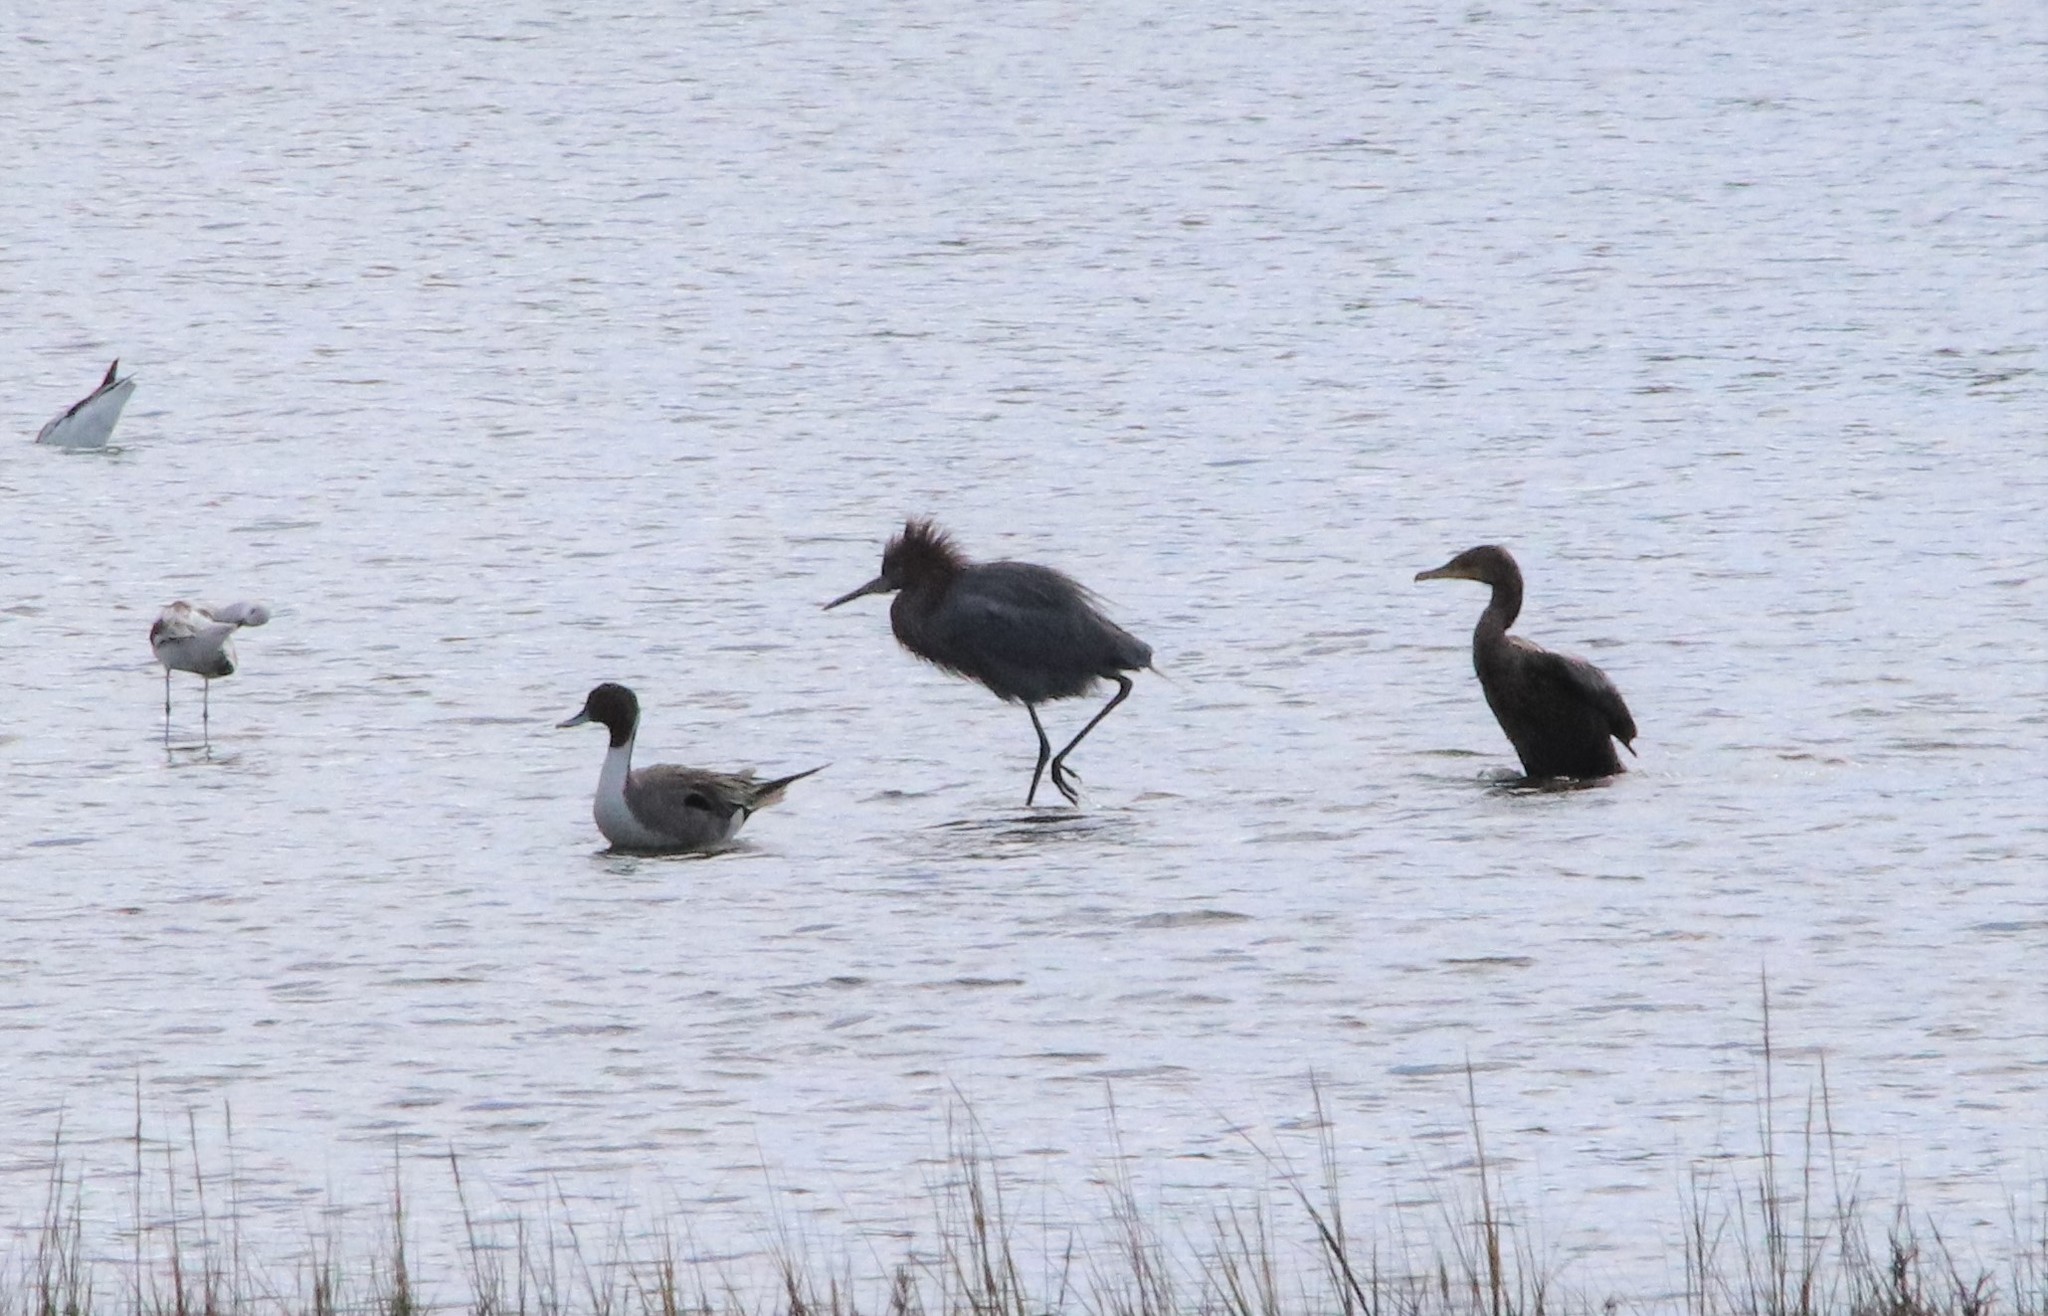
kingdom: Animalia
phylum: Chordata
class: Aves
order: Pelecaniformes
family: Ardeidae
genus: Egretta
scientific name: Egretta rufescens
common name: Reddish egret
